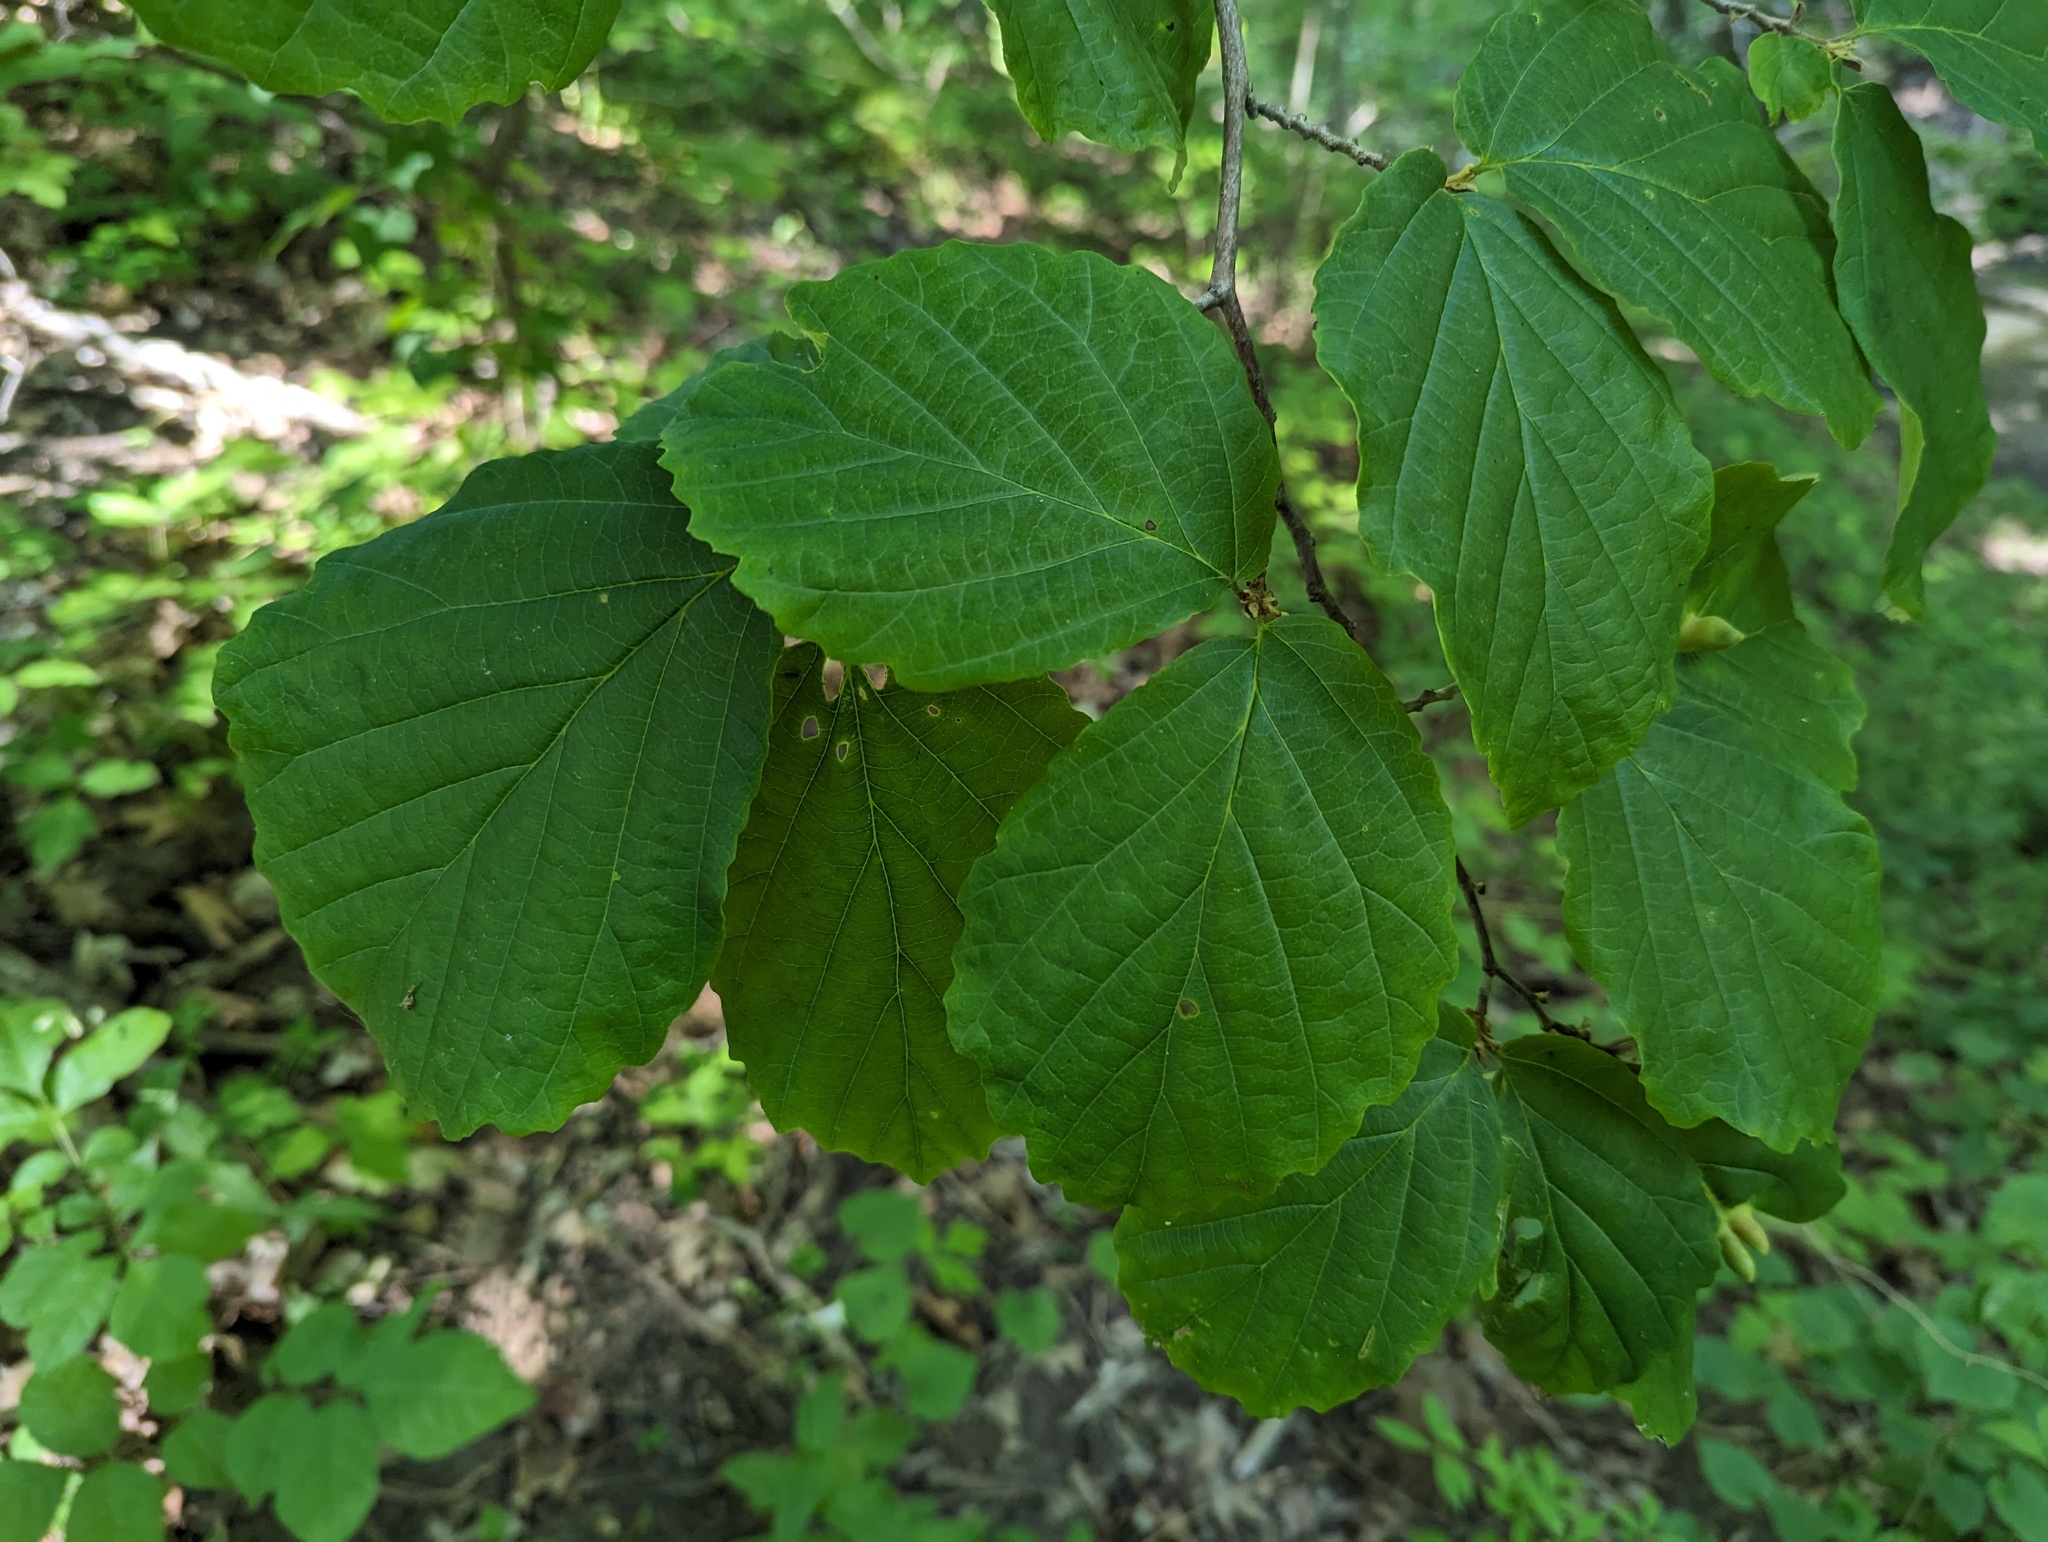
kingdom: Plantae
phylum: Tracheophyta
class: Magnoliopsida
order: Saxifragales
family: Hamamelidaceae
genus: Hamamelis
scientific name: Hamamelis virginiana
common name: Witch-hazel
